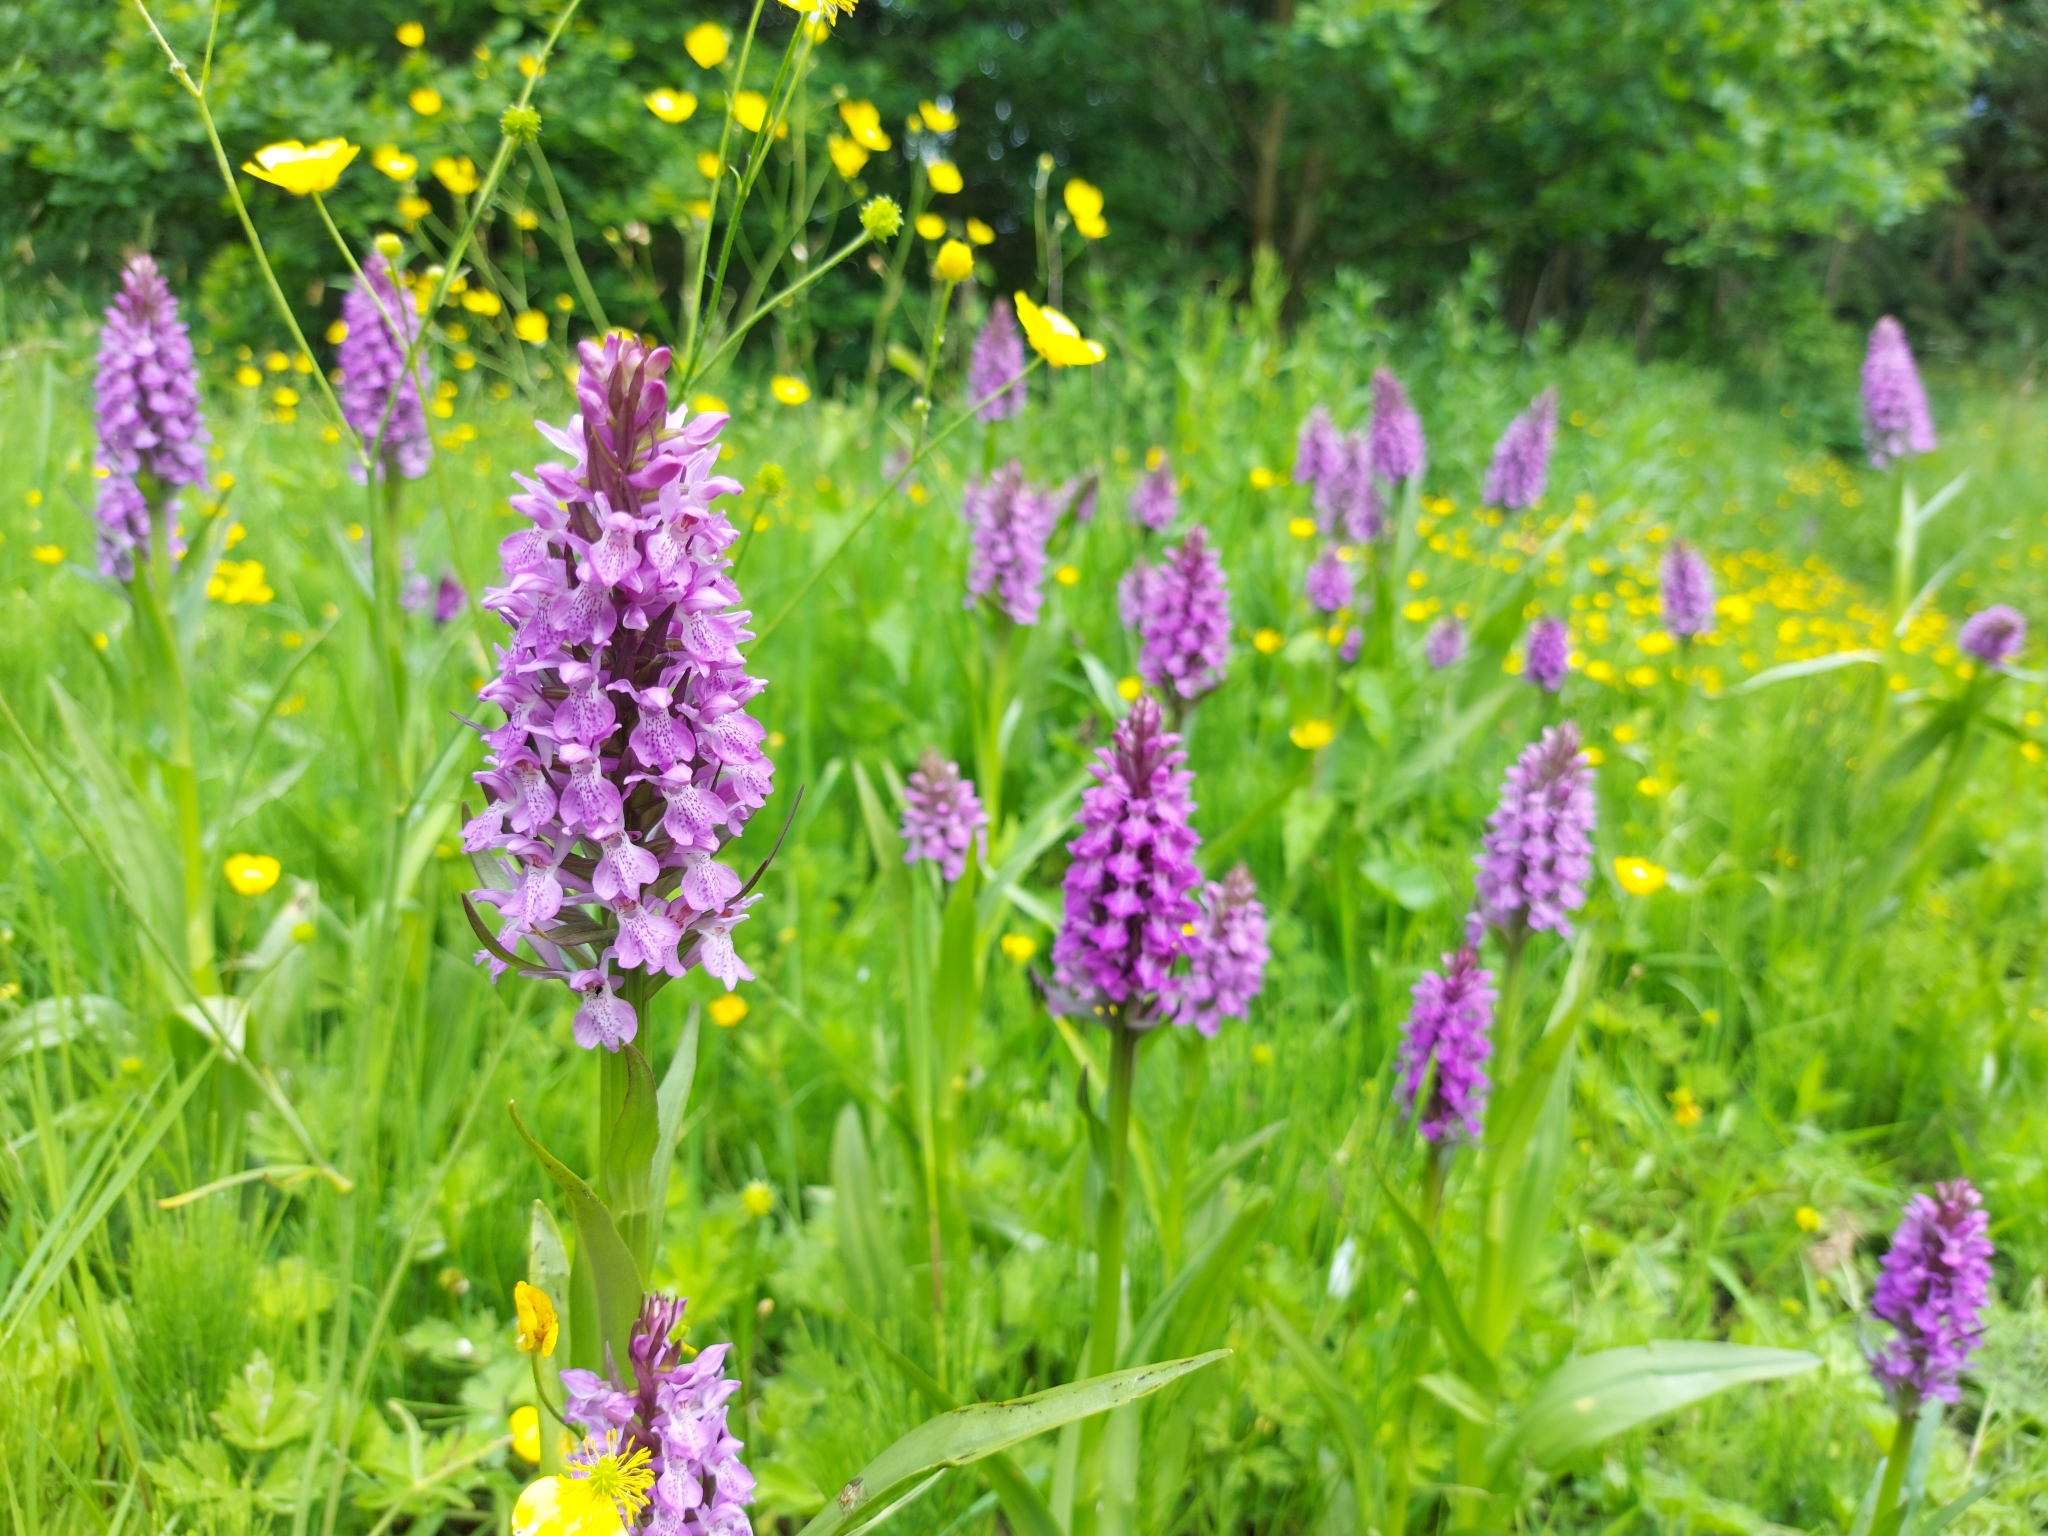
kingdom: Plantae
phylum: Tracheophyta
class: Liliopsida
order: Asparagales
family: Orchidaceae
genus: Dactylorhiza
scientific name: Dactylorhiza majalis
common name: Marsh orchid
